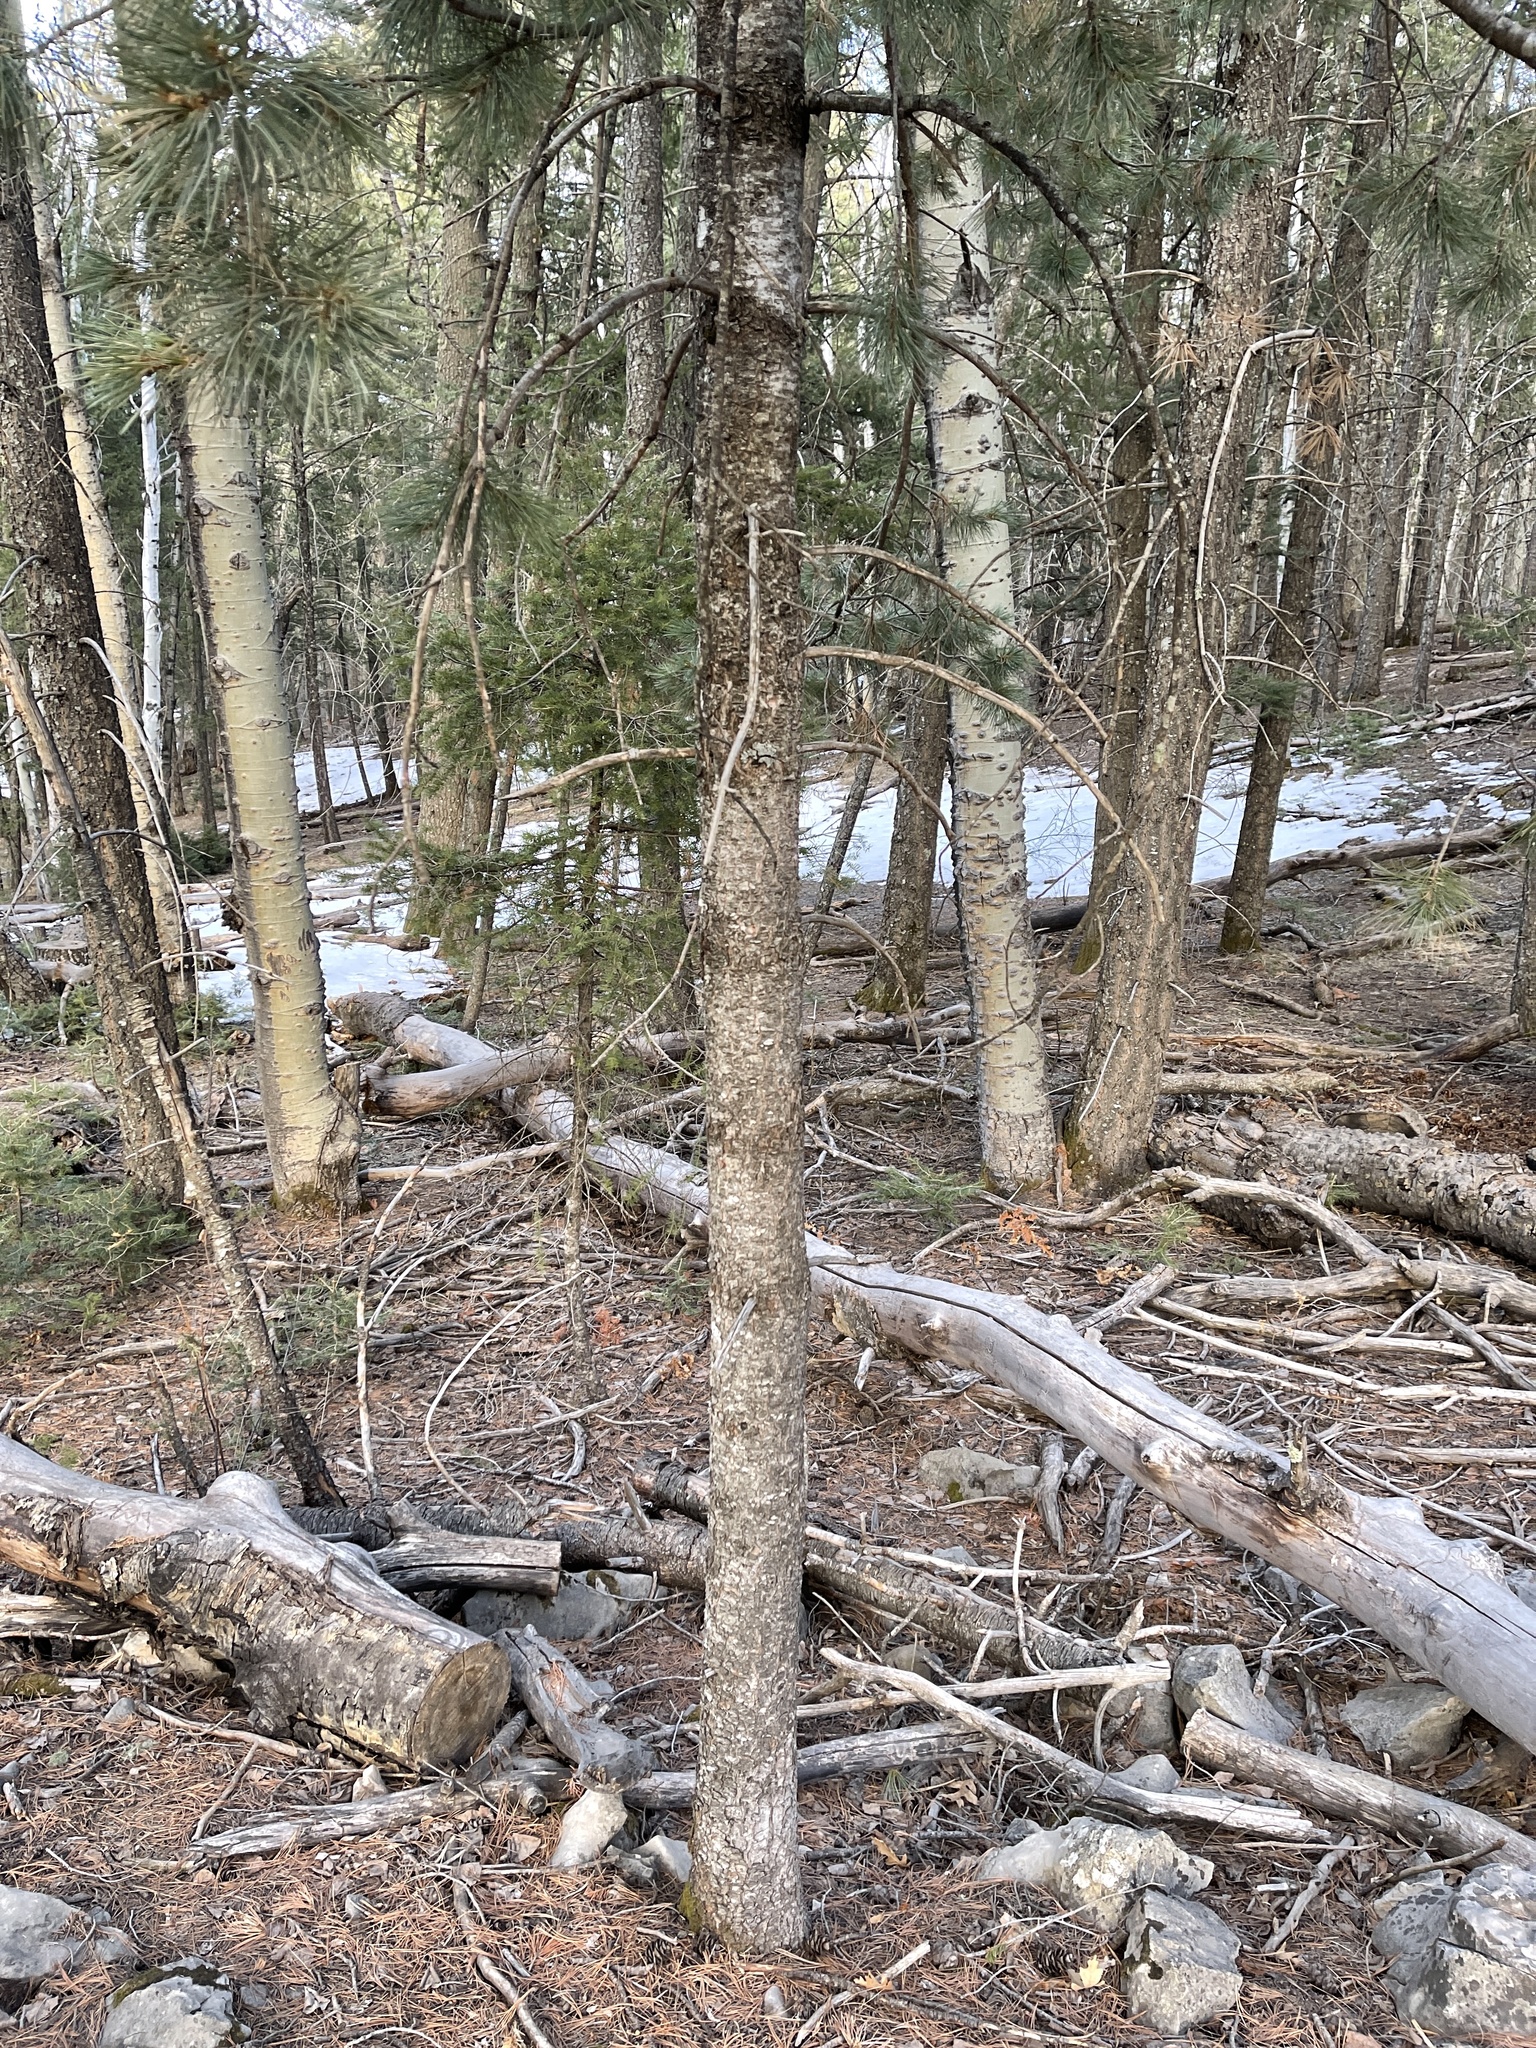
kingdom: Plantae
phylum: Tracheophyta
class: Pinopsida
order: Pinales
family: Pinaceae
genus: Pinus
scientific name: Pinus strobiformis
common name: Southwestern white pine
